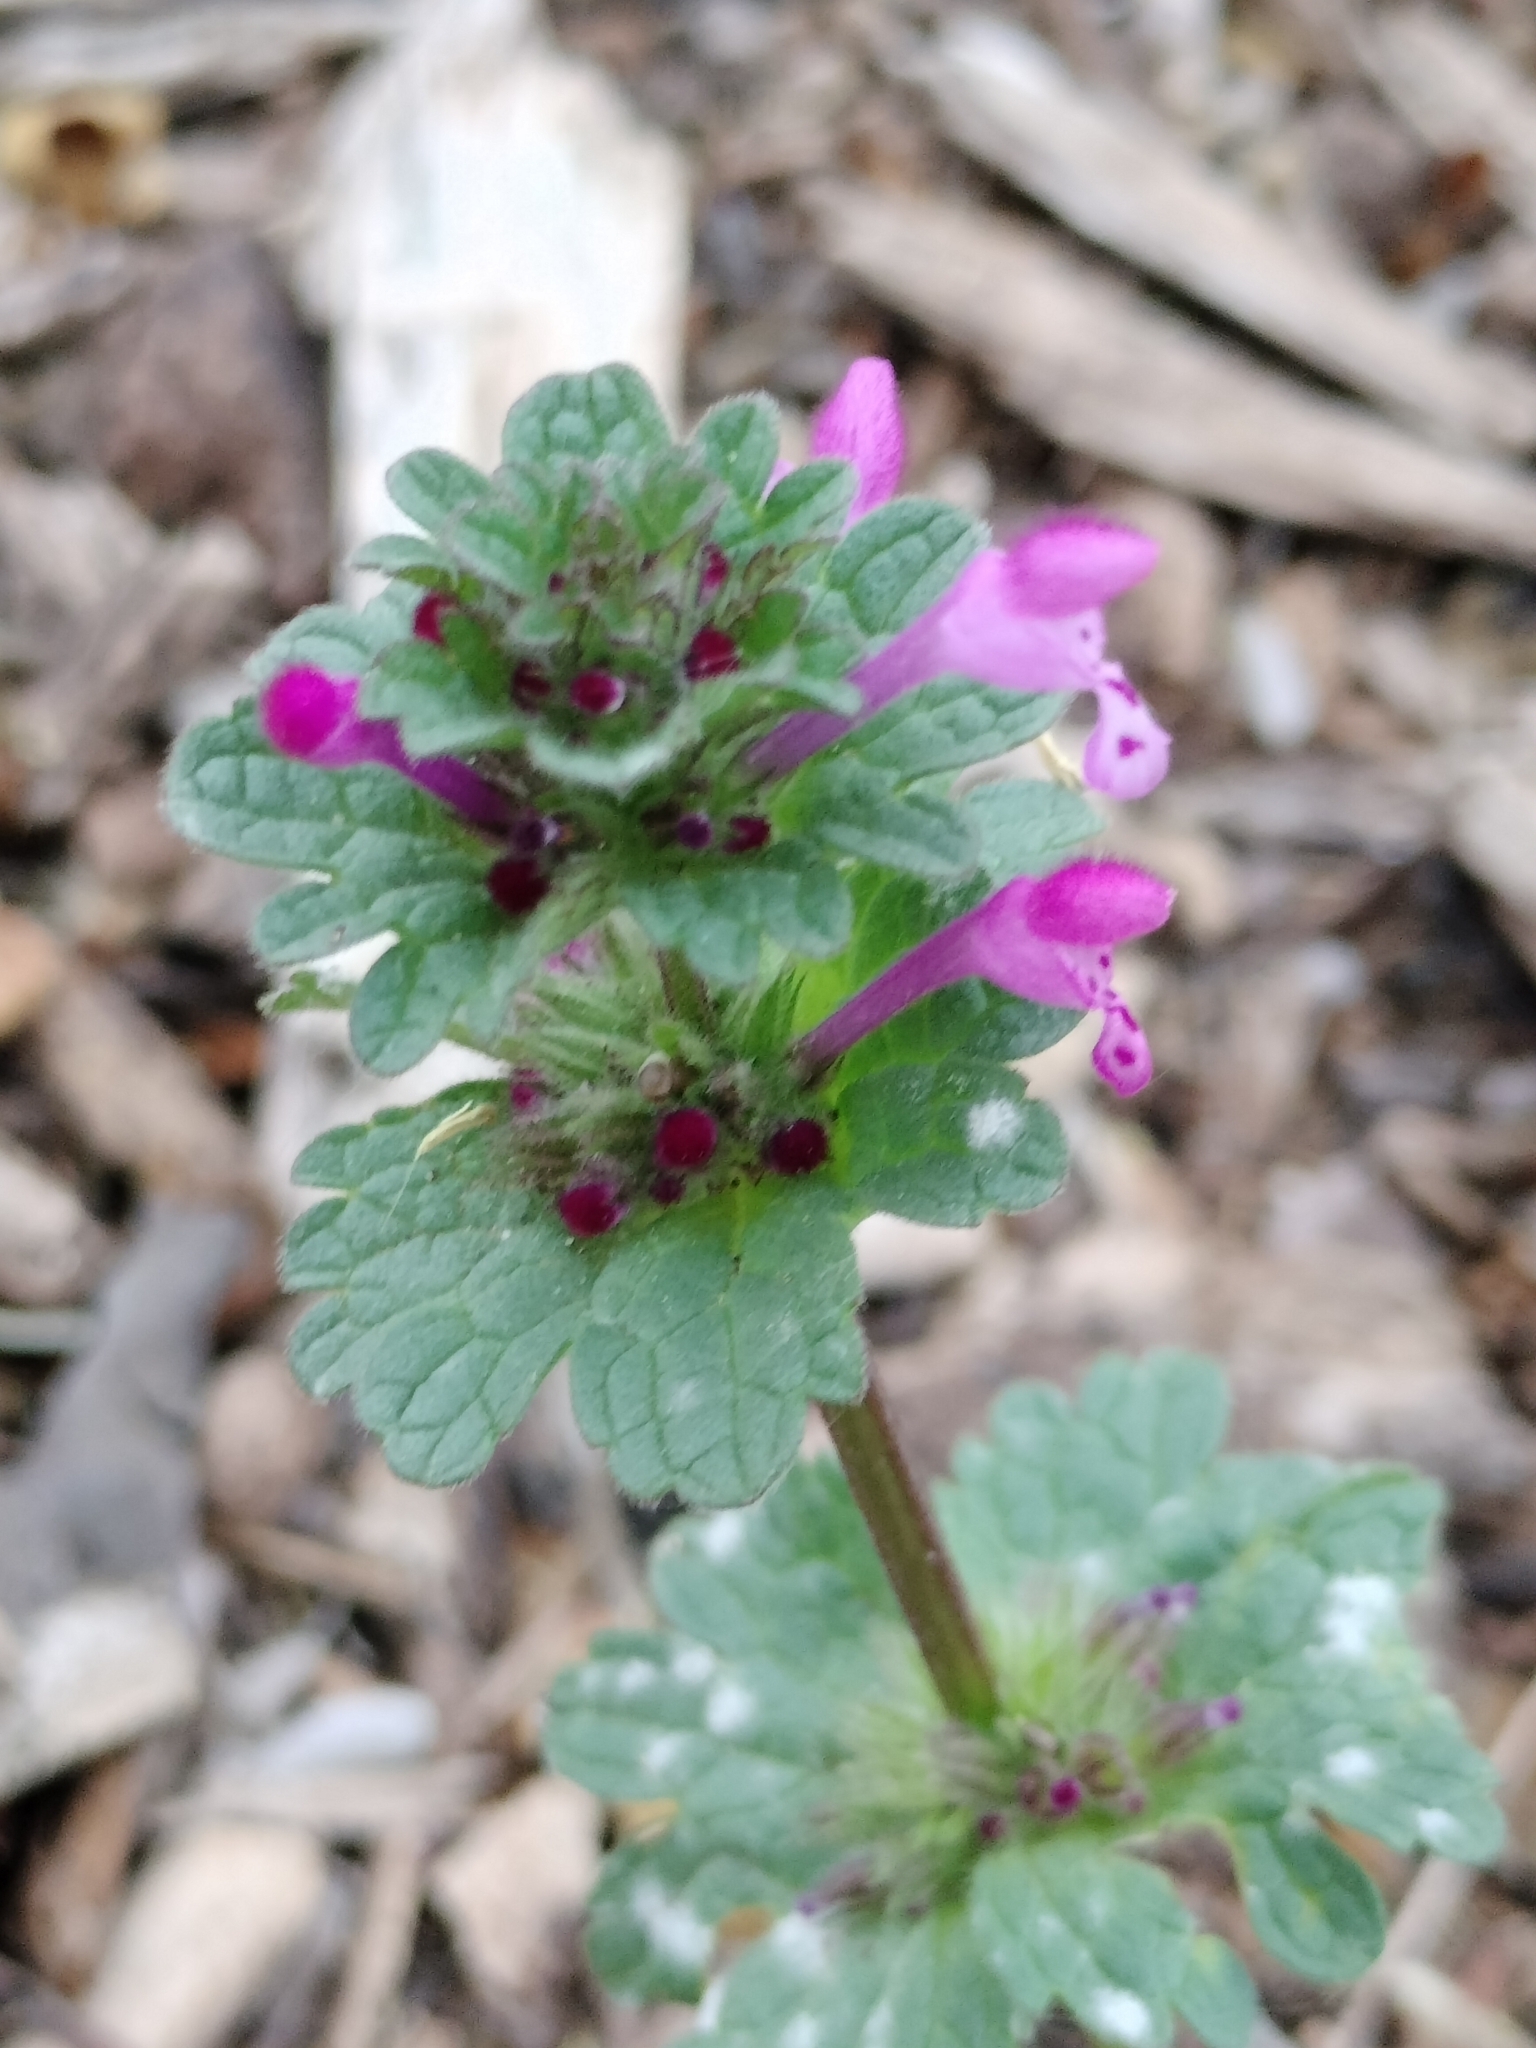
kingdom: Plantae
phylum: Tracheophyta
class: Magnoliopsida
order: Lamiales
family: Lamiaceae
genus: Lamium
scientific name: Lamium amplexicaule
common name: Henbit dead-nettle
